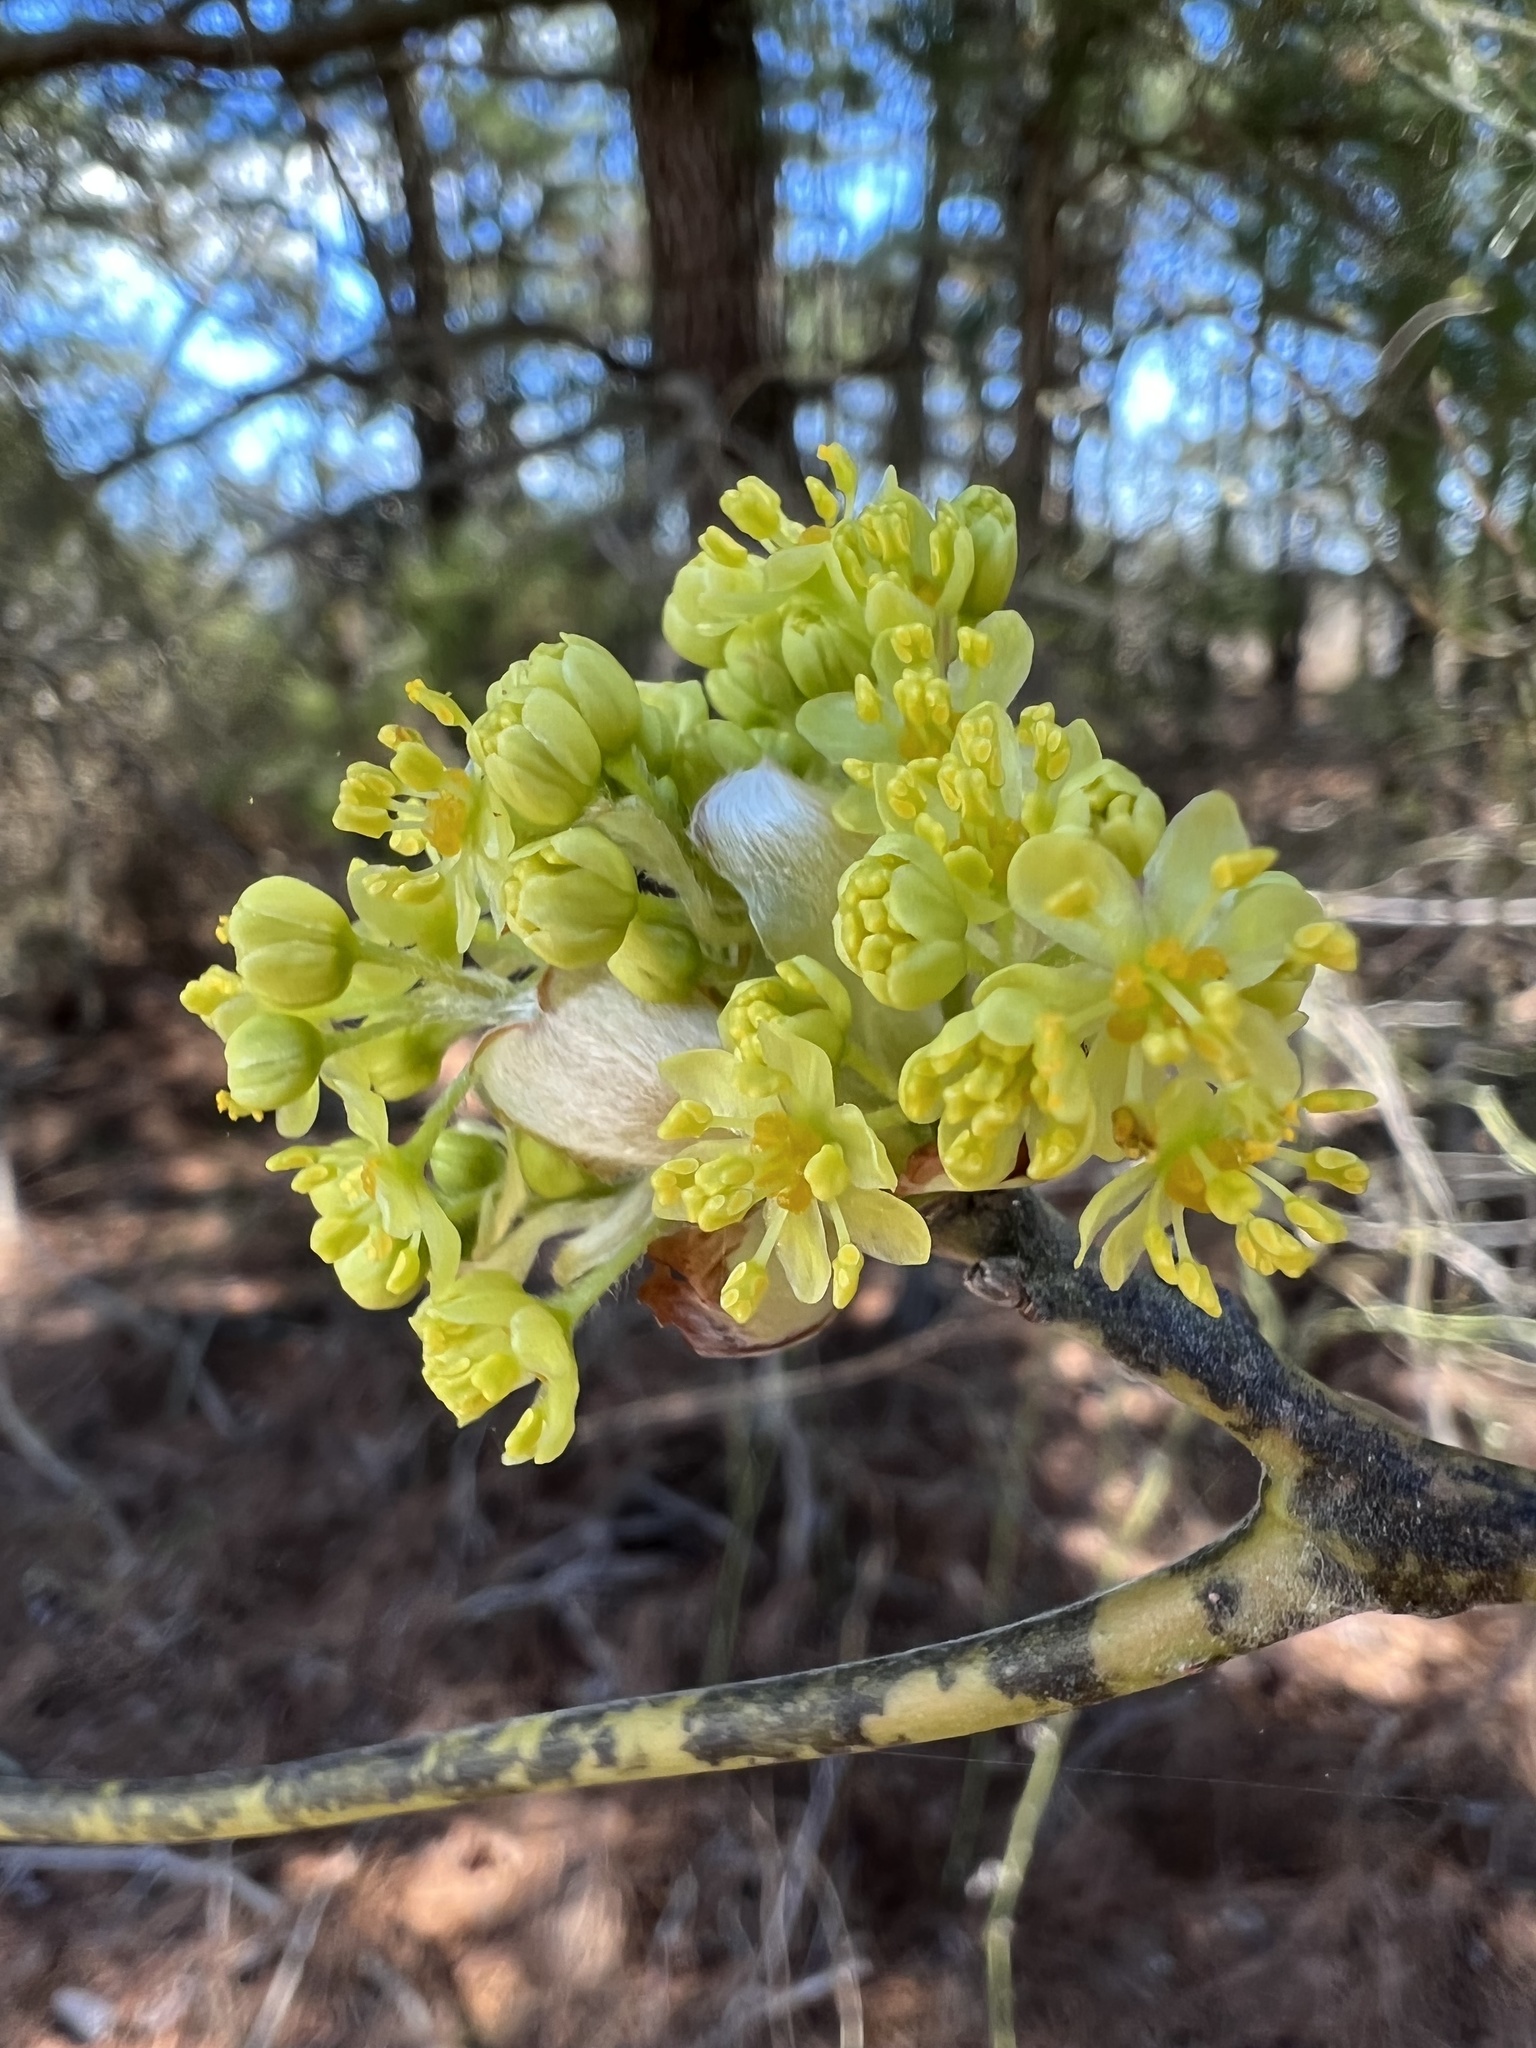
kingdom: Plantae
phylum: Tracheophyta
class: Magnoliopsida
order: Laurales
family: Lauraceae
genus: Sassafras
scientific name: Sassafras albidum
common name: Sassafras
